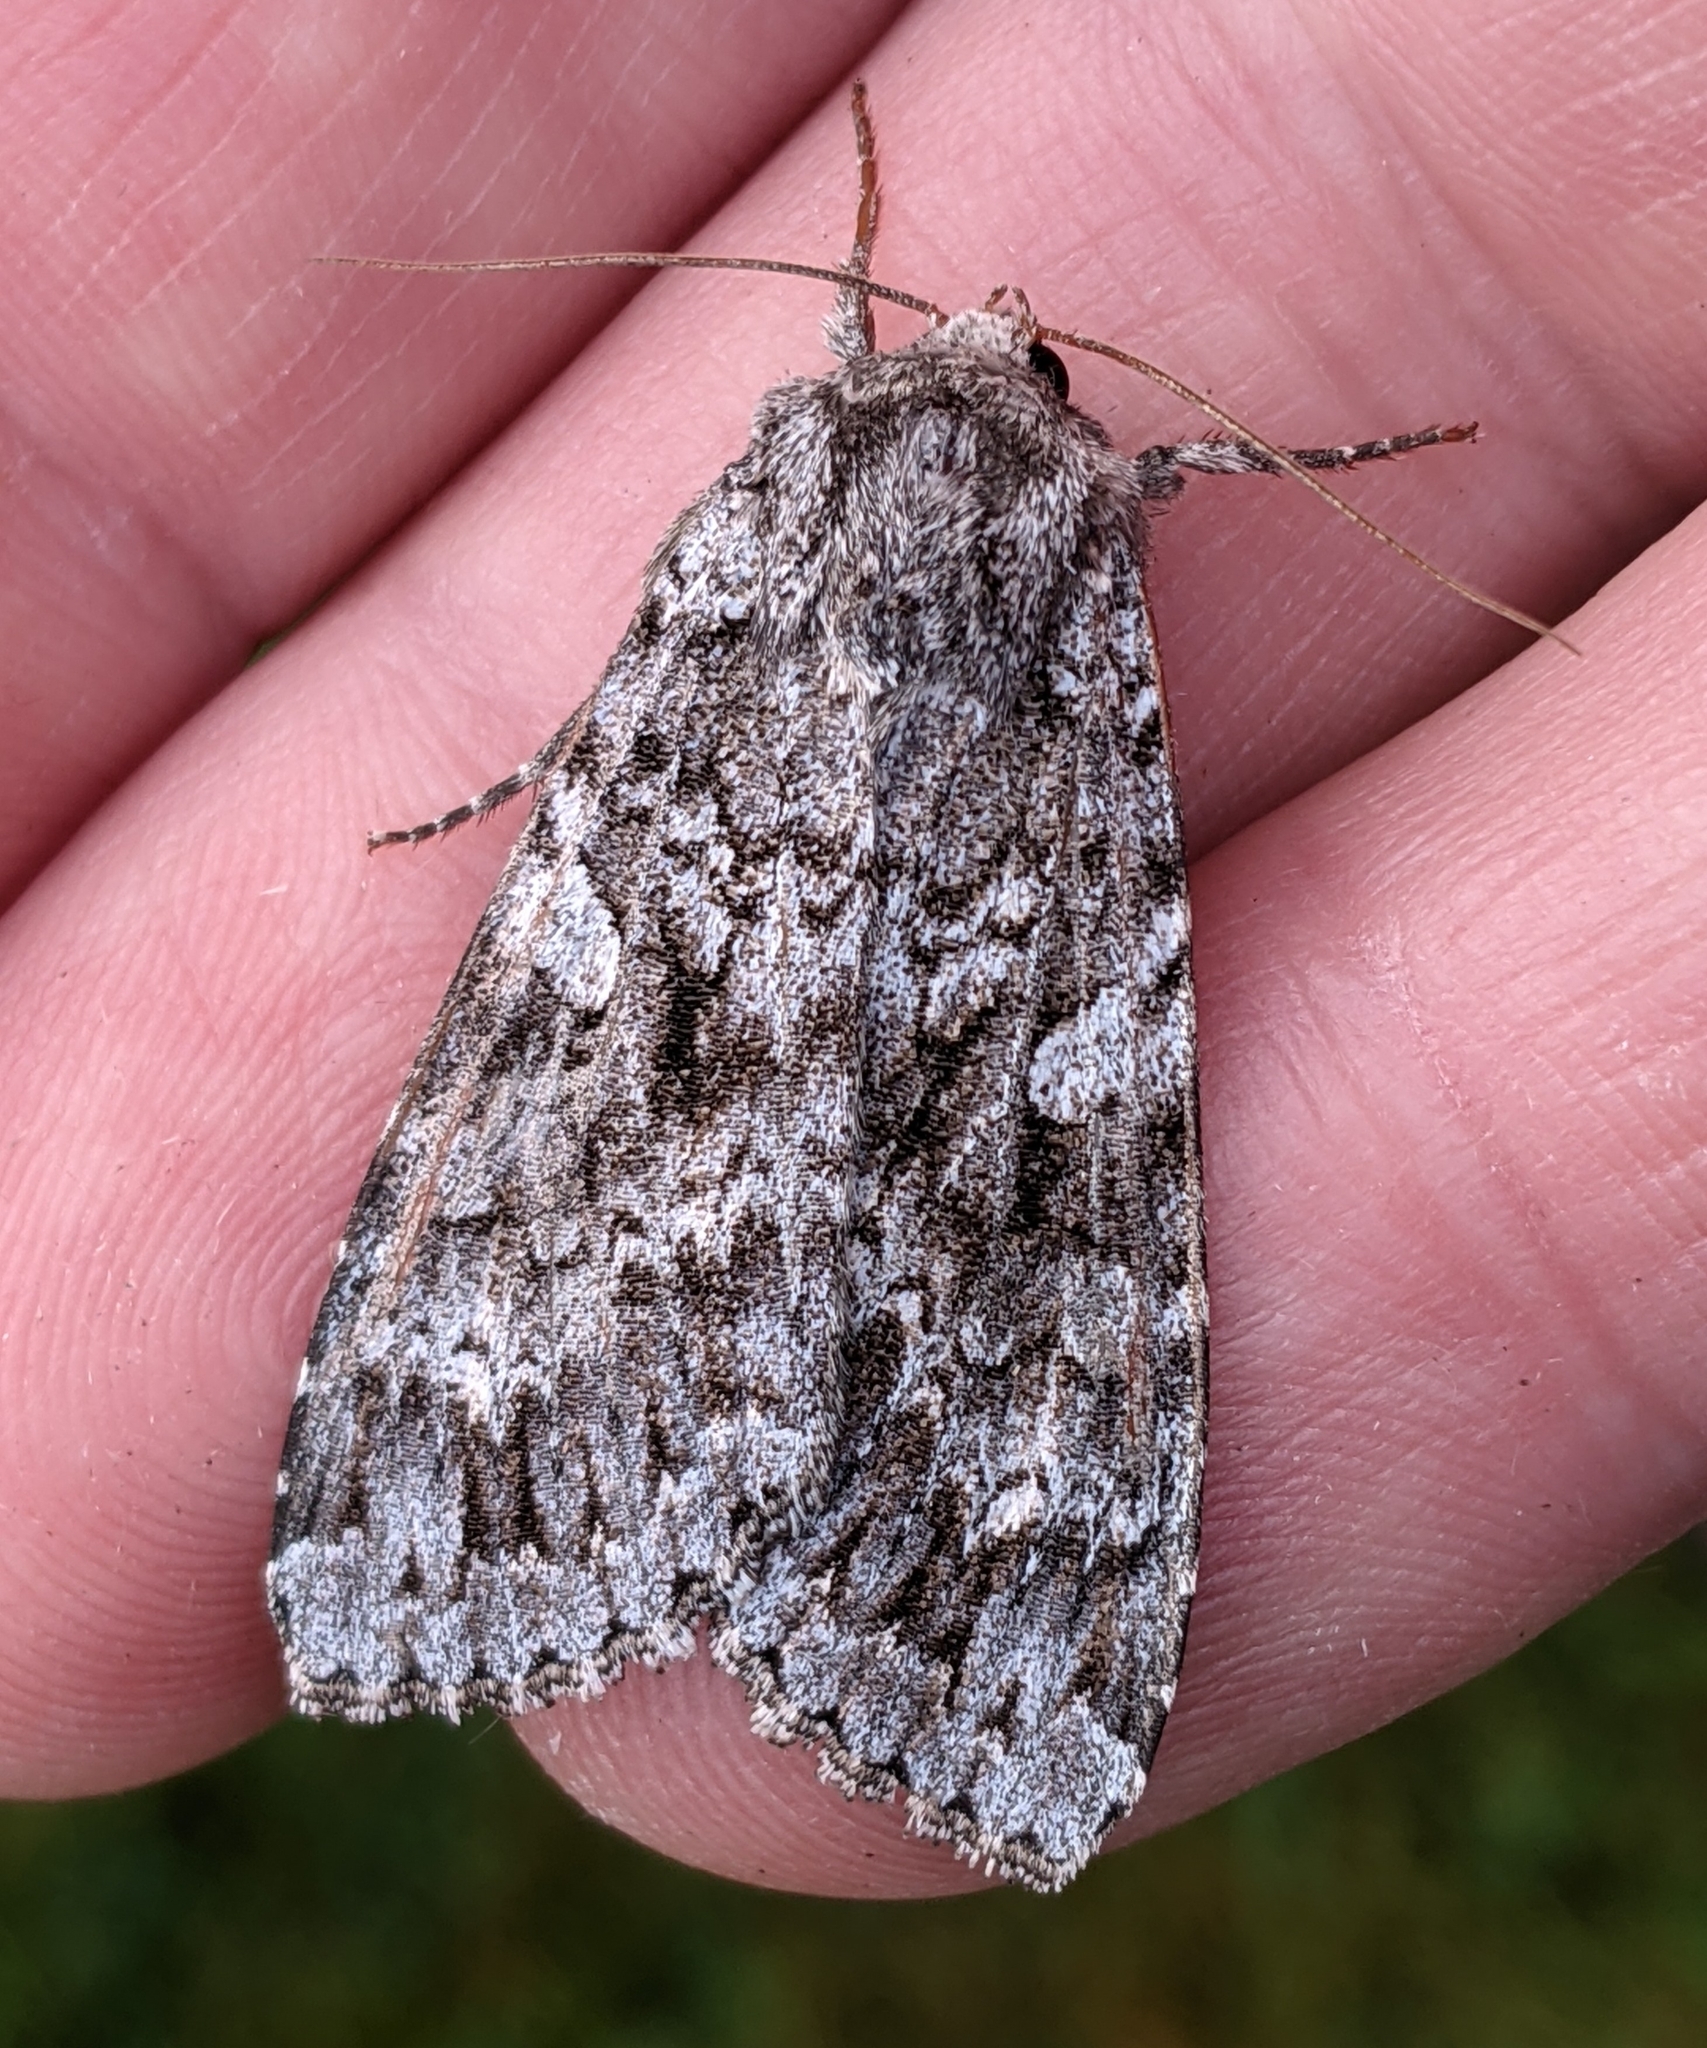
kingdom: Animalia
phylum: Arthropoda
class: Insecta
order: Lepidoptera
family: Noctuidae
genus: Eurois
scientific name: Eurois occulta
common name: Great brocade
